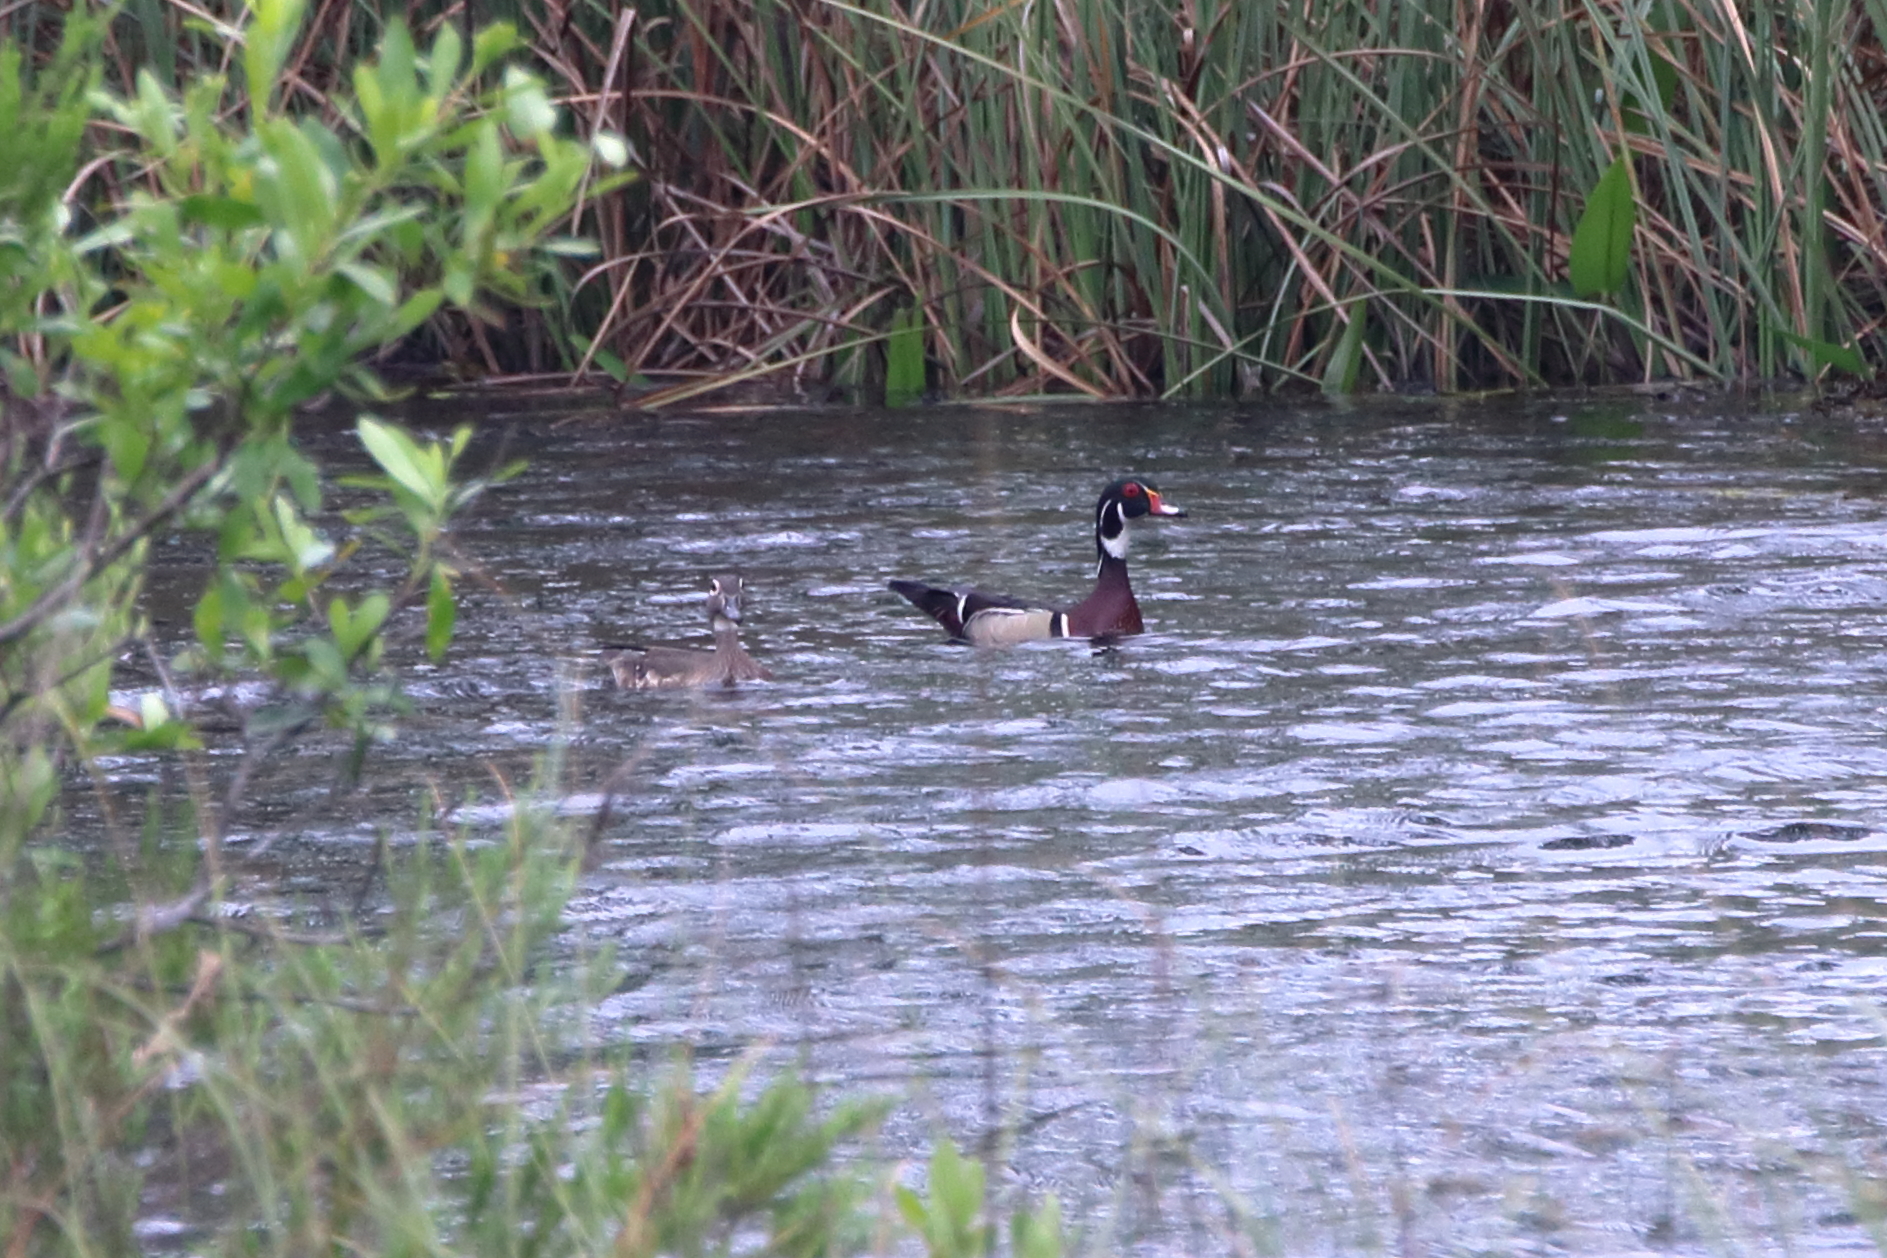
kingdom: Animalia
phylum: Chordata
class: Aves
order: Anseriformes
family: Anatidae
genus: Aix
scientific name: Aix sponsa
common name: Wood duck
